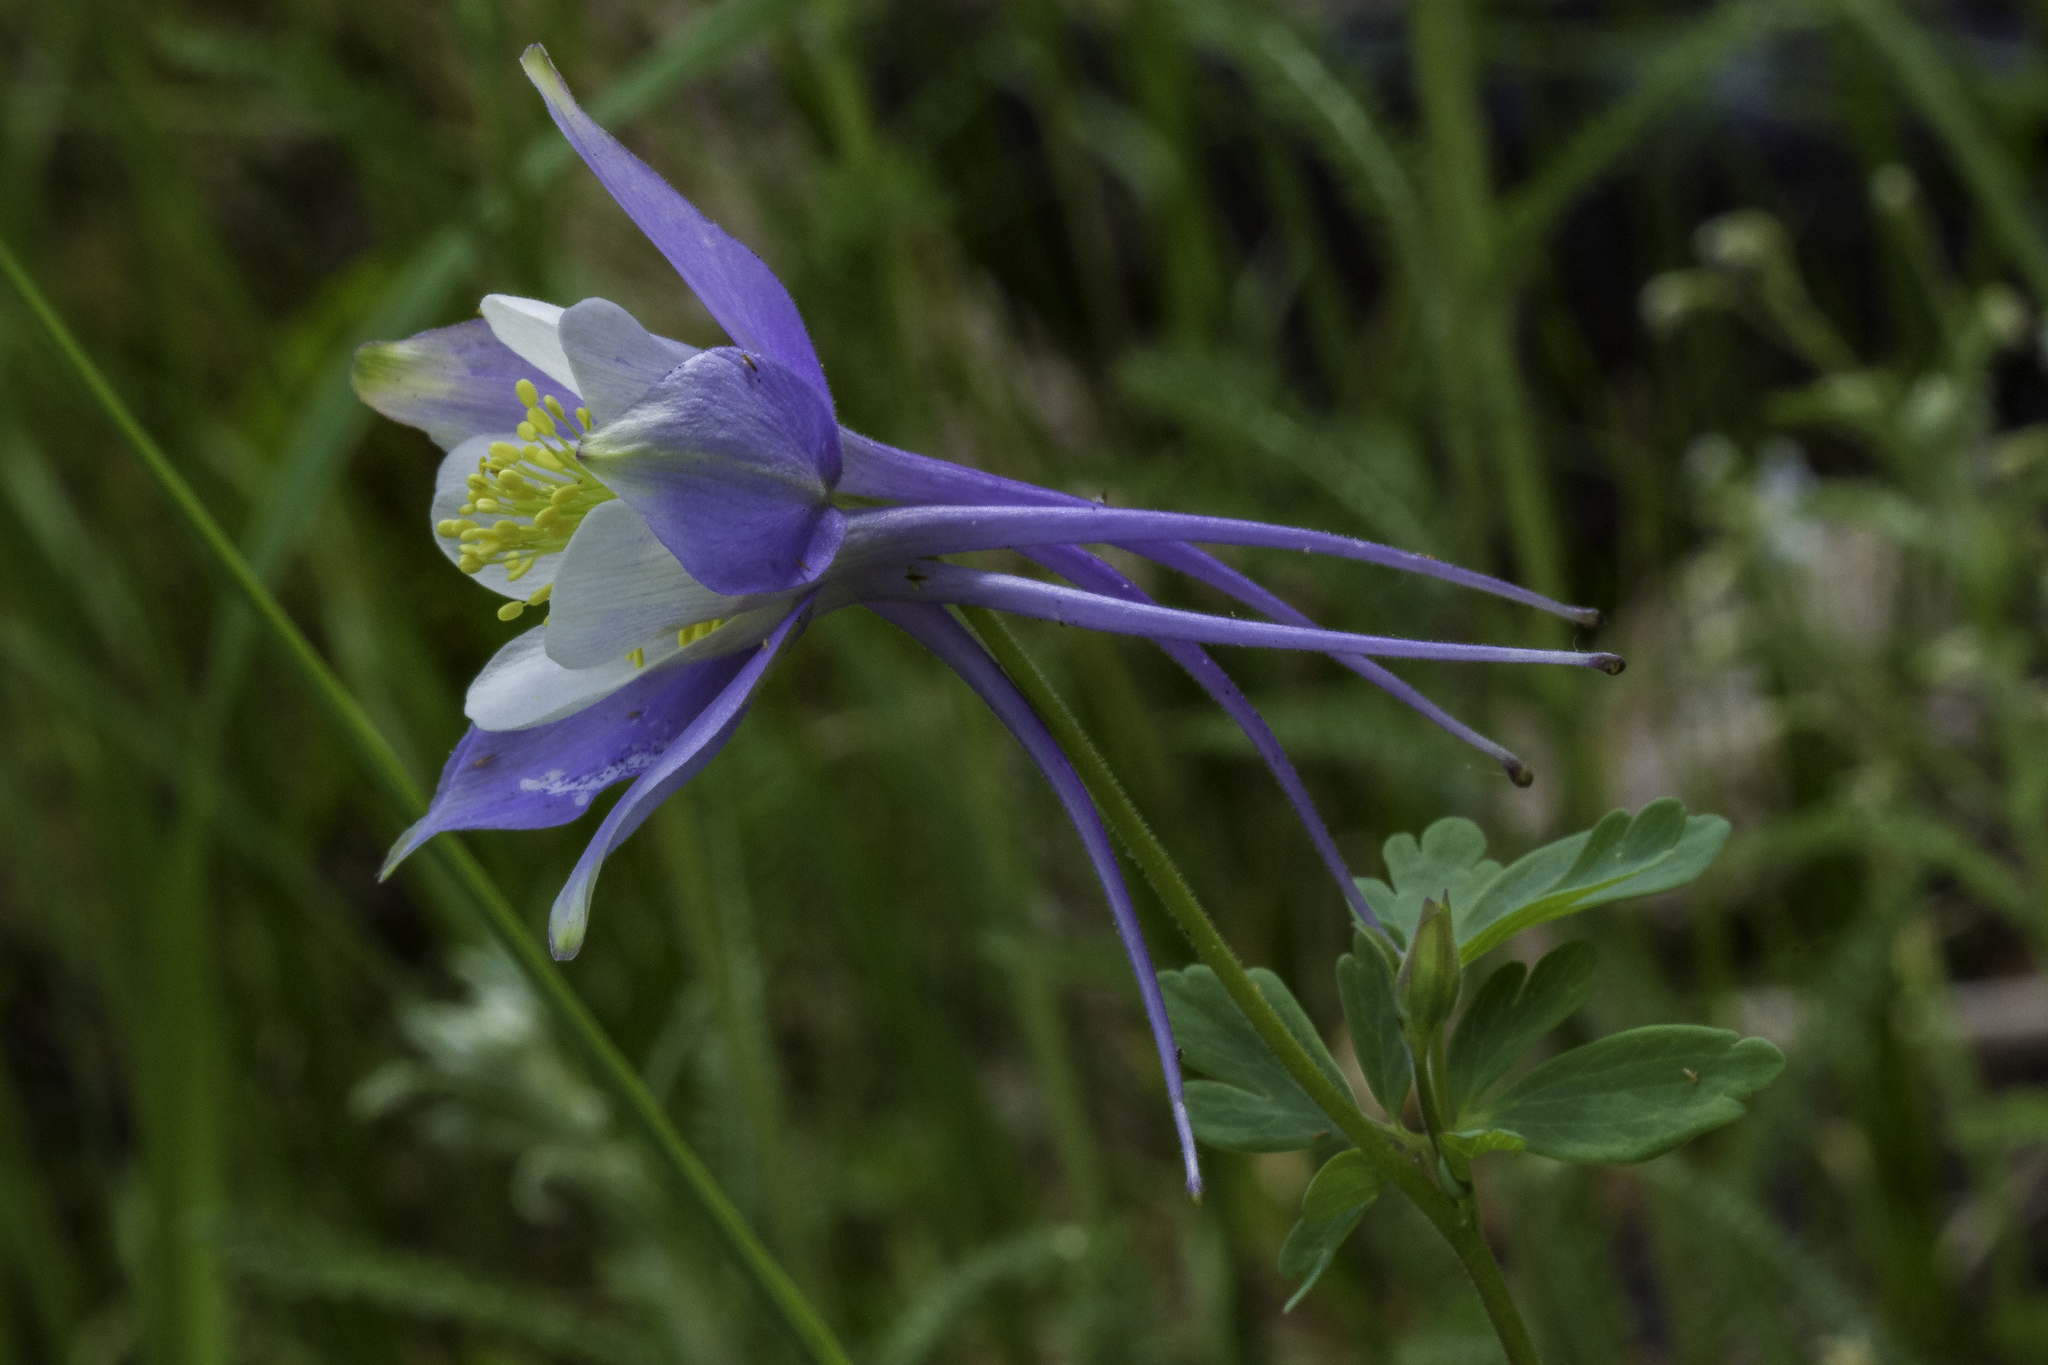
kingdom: Plantae
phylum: Tracheophyta
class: Magnoliopsida
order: Ranunculales
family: Ranunculaceae
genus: Aquilegia
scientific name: Aquilegia coerulea
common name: Rocky mountain columbine
